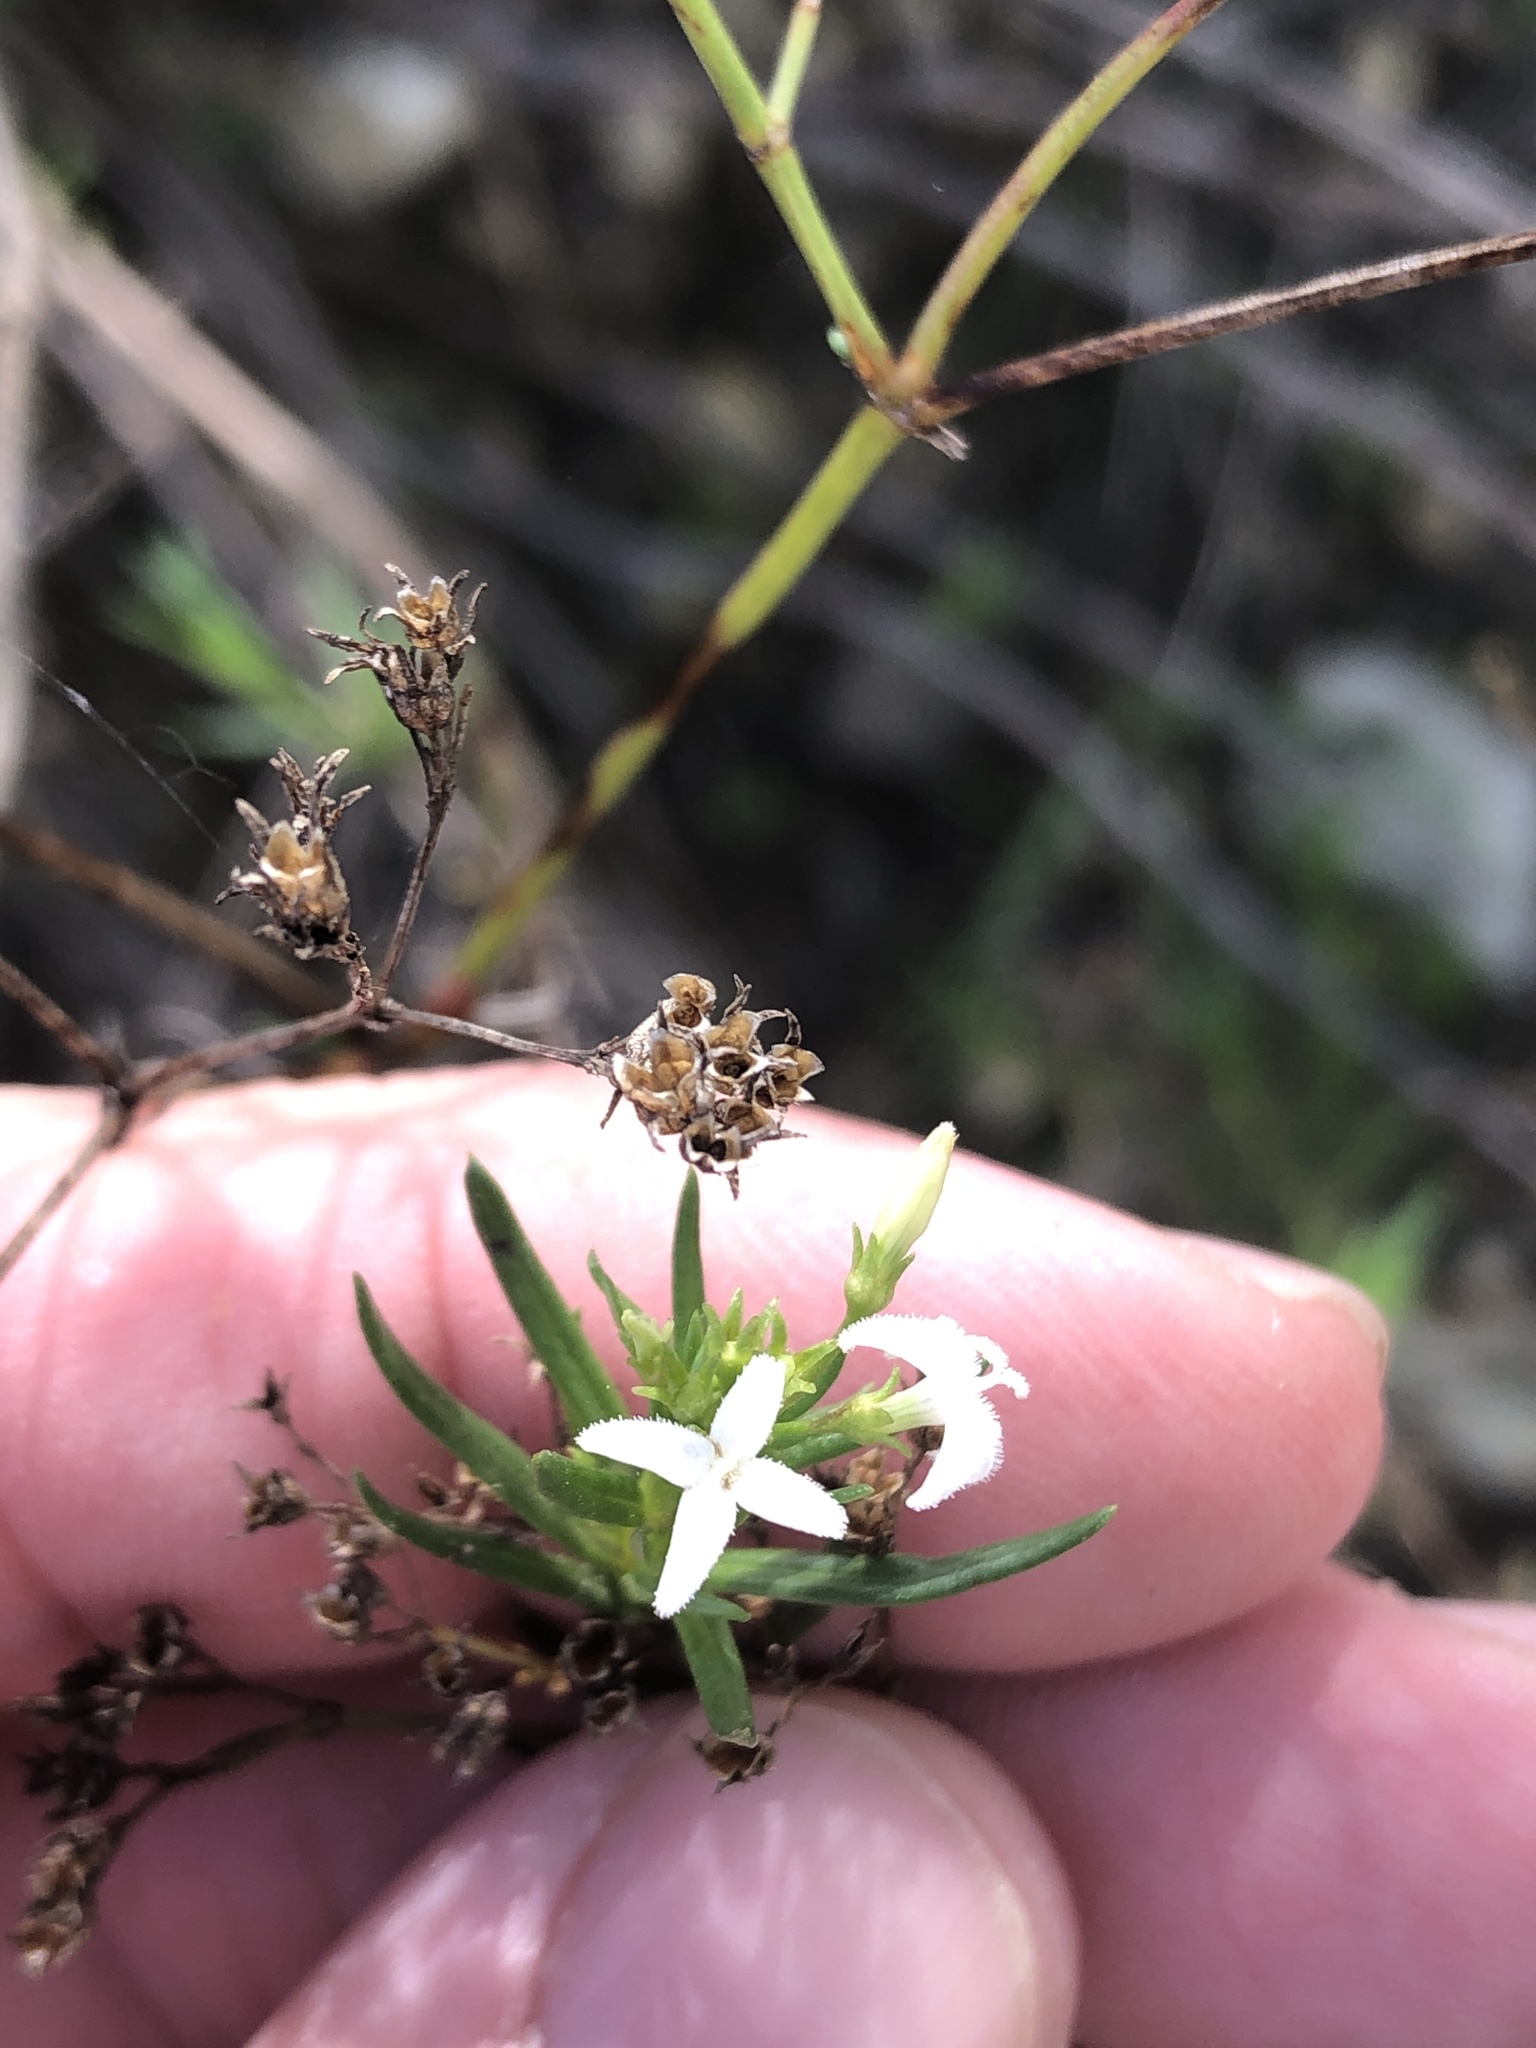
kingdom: Plantae
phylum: Tracheophyta
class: Magnoliopsida
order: Gentianales
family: Rubiaceae
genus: Stenaria
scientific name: Stenaria nigricans
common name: Diamondflowers
